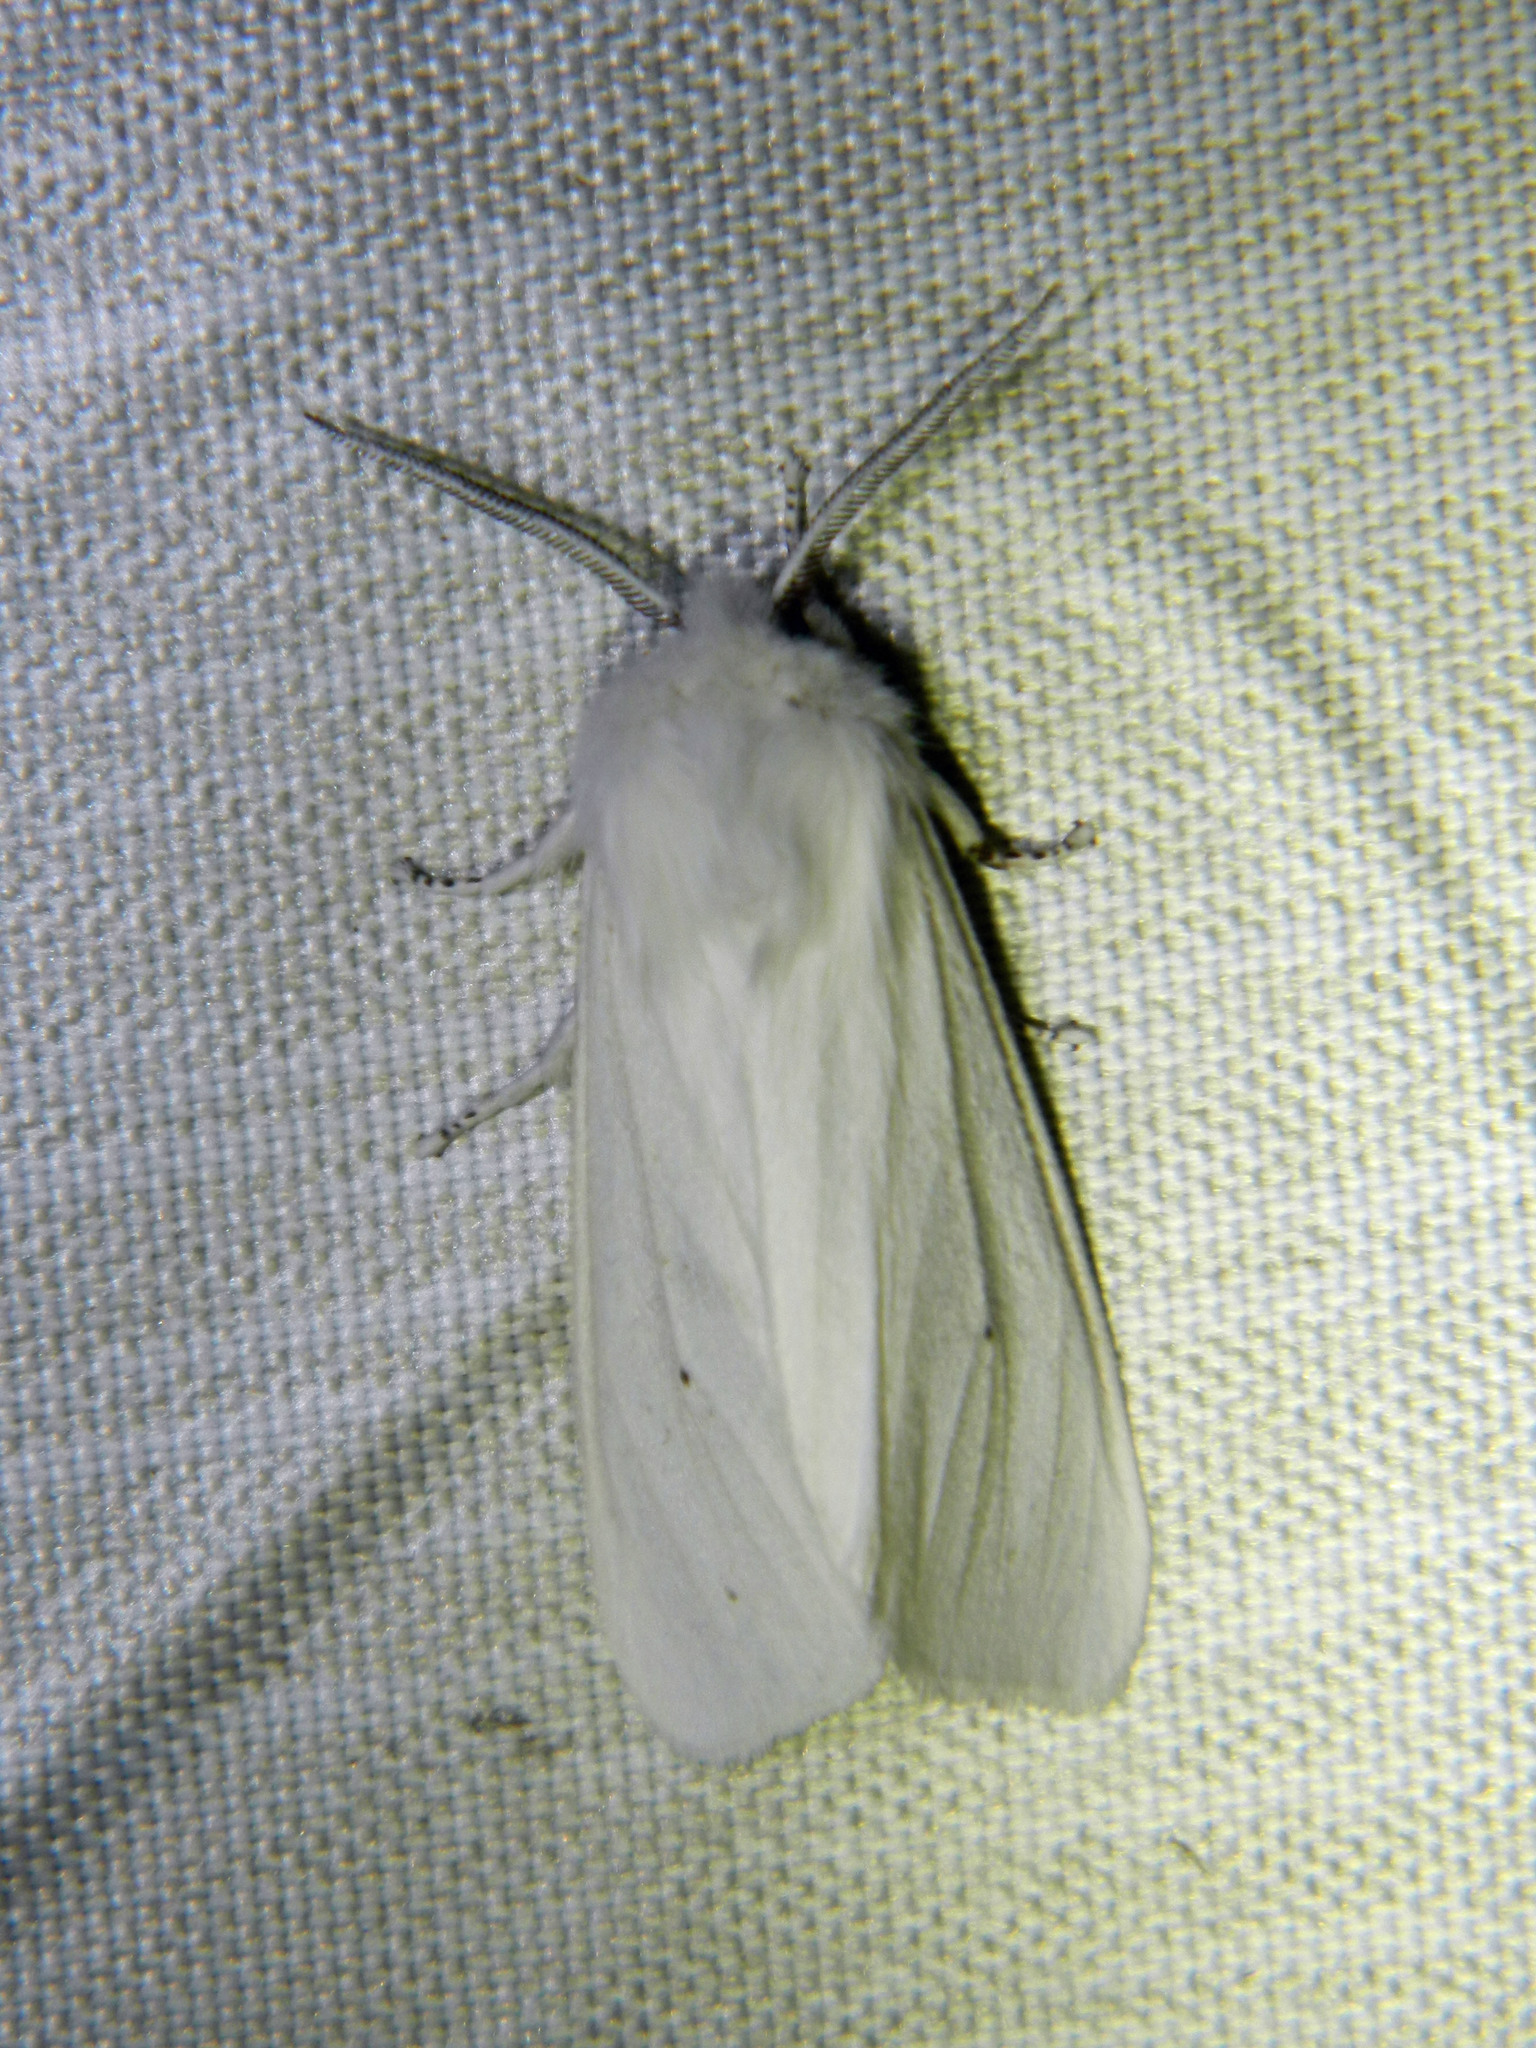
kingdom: Animalia
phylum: Arthropoda
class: Insecta
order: Lepidoptera
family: Erebidae
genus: Spilosoma
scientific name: Spilosoma virginica
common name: Virginia tiger moth
